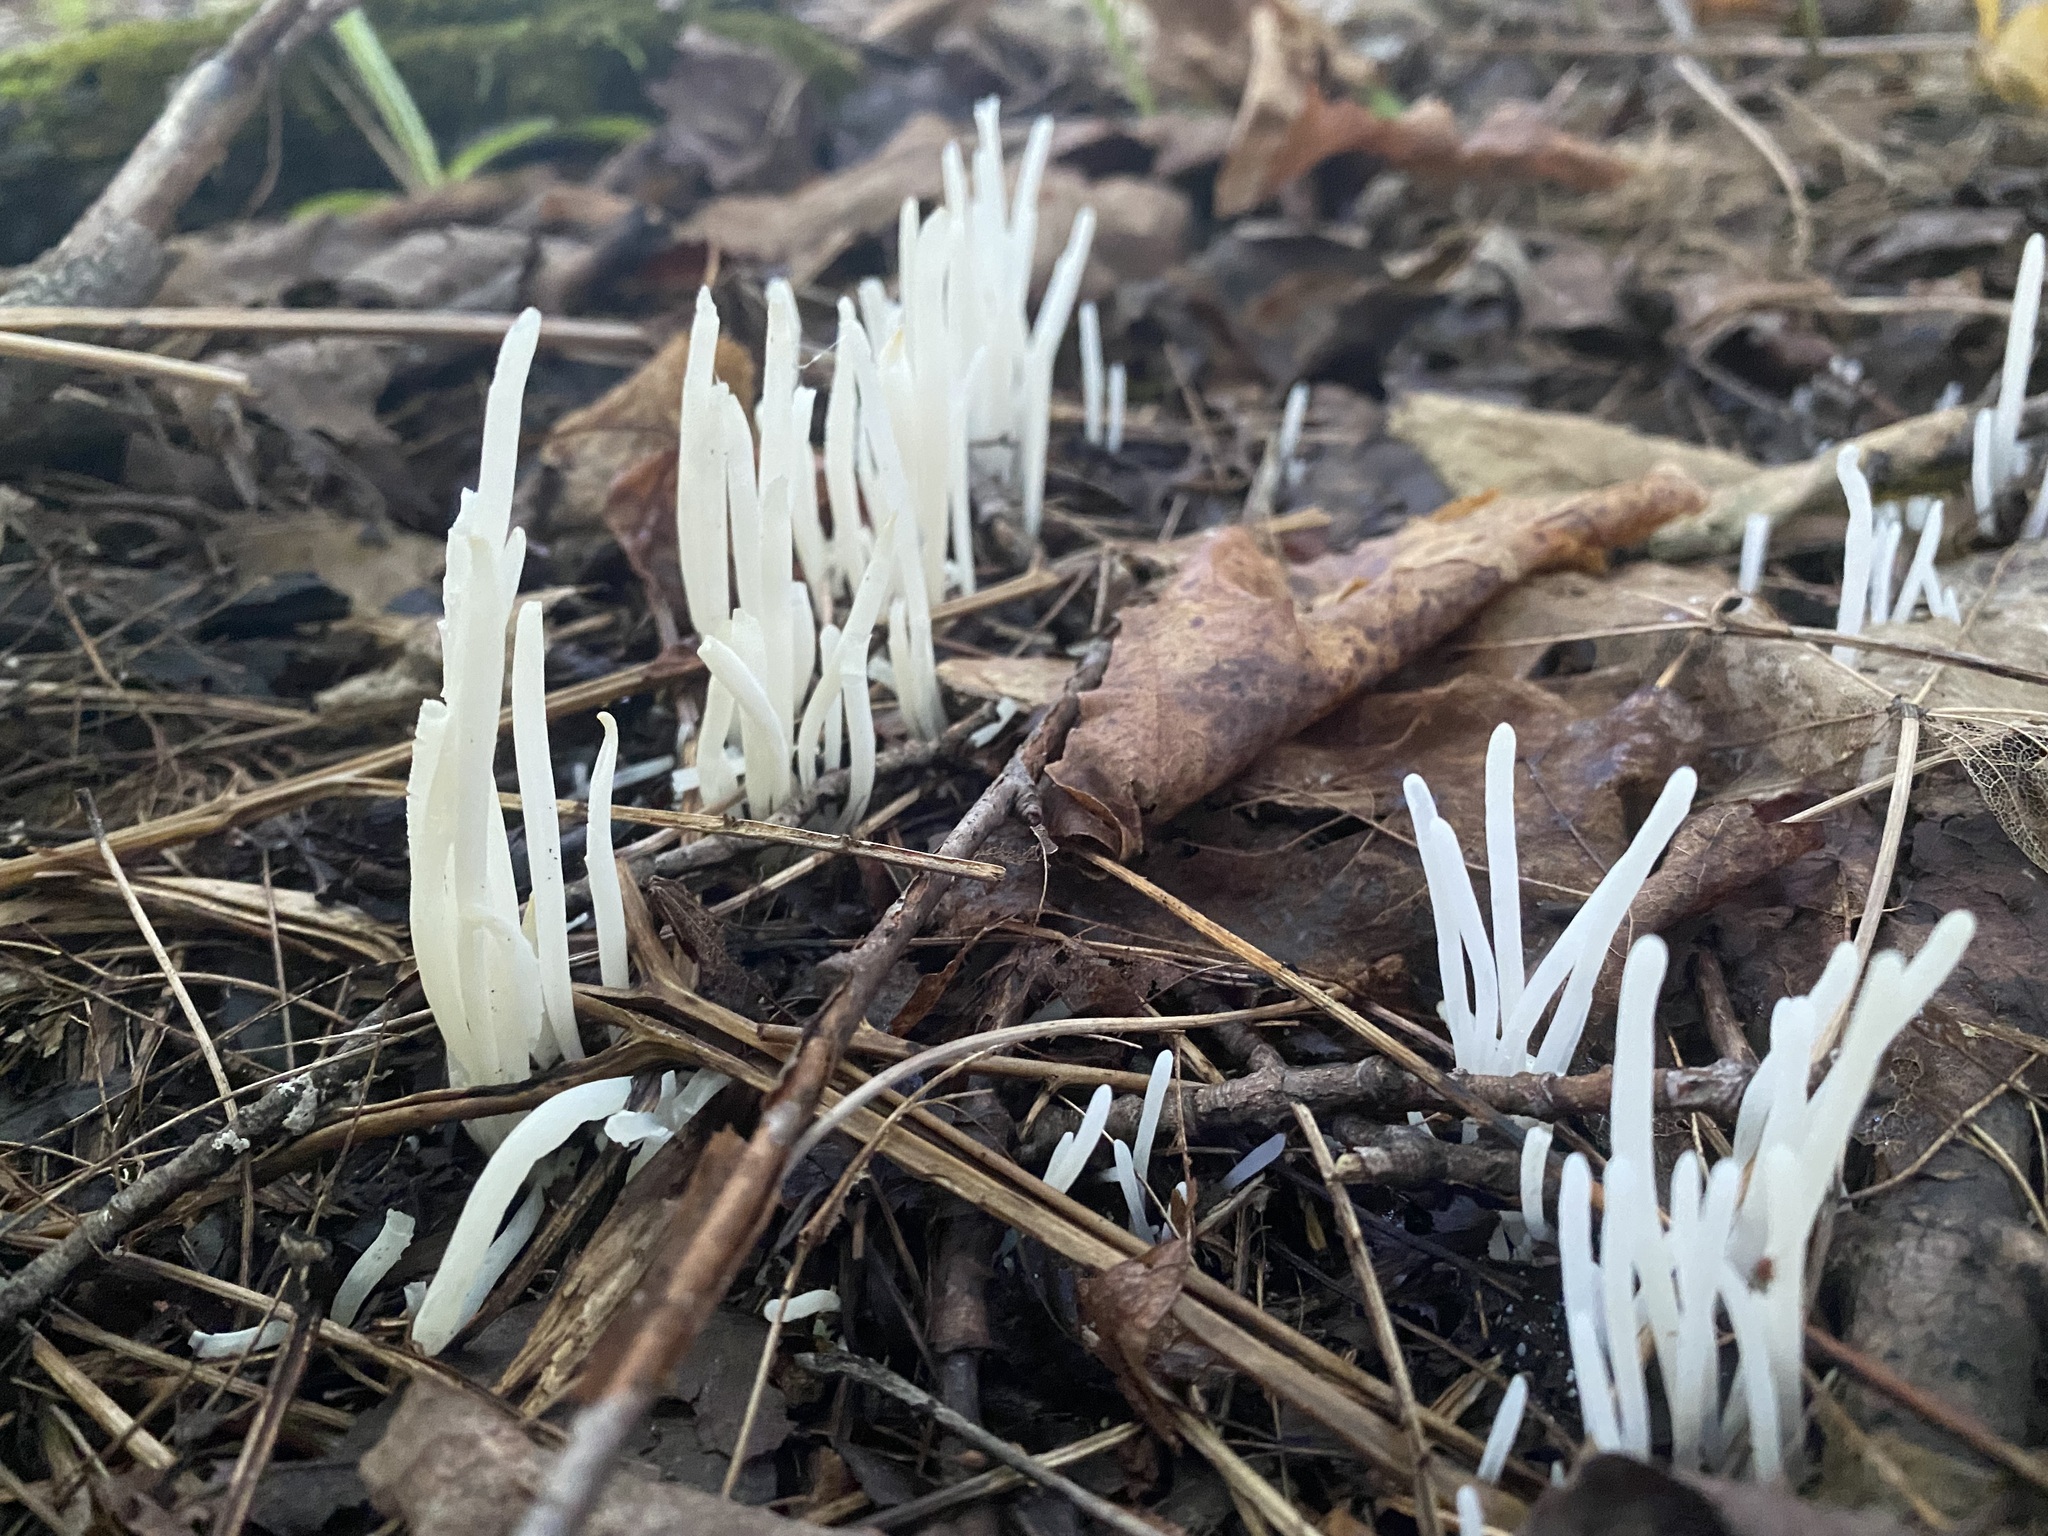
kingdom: Fungi
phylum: Basidiomycota
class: Agaricomycetes
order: Agaricales
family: Clavariaceae
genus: Clavaria
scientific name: Clavaria fragilis
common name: White spindles
